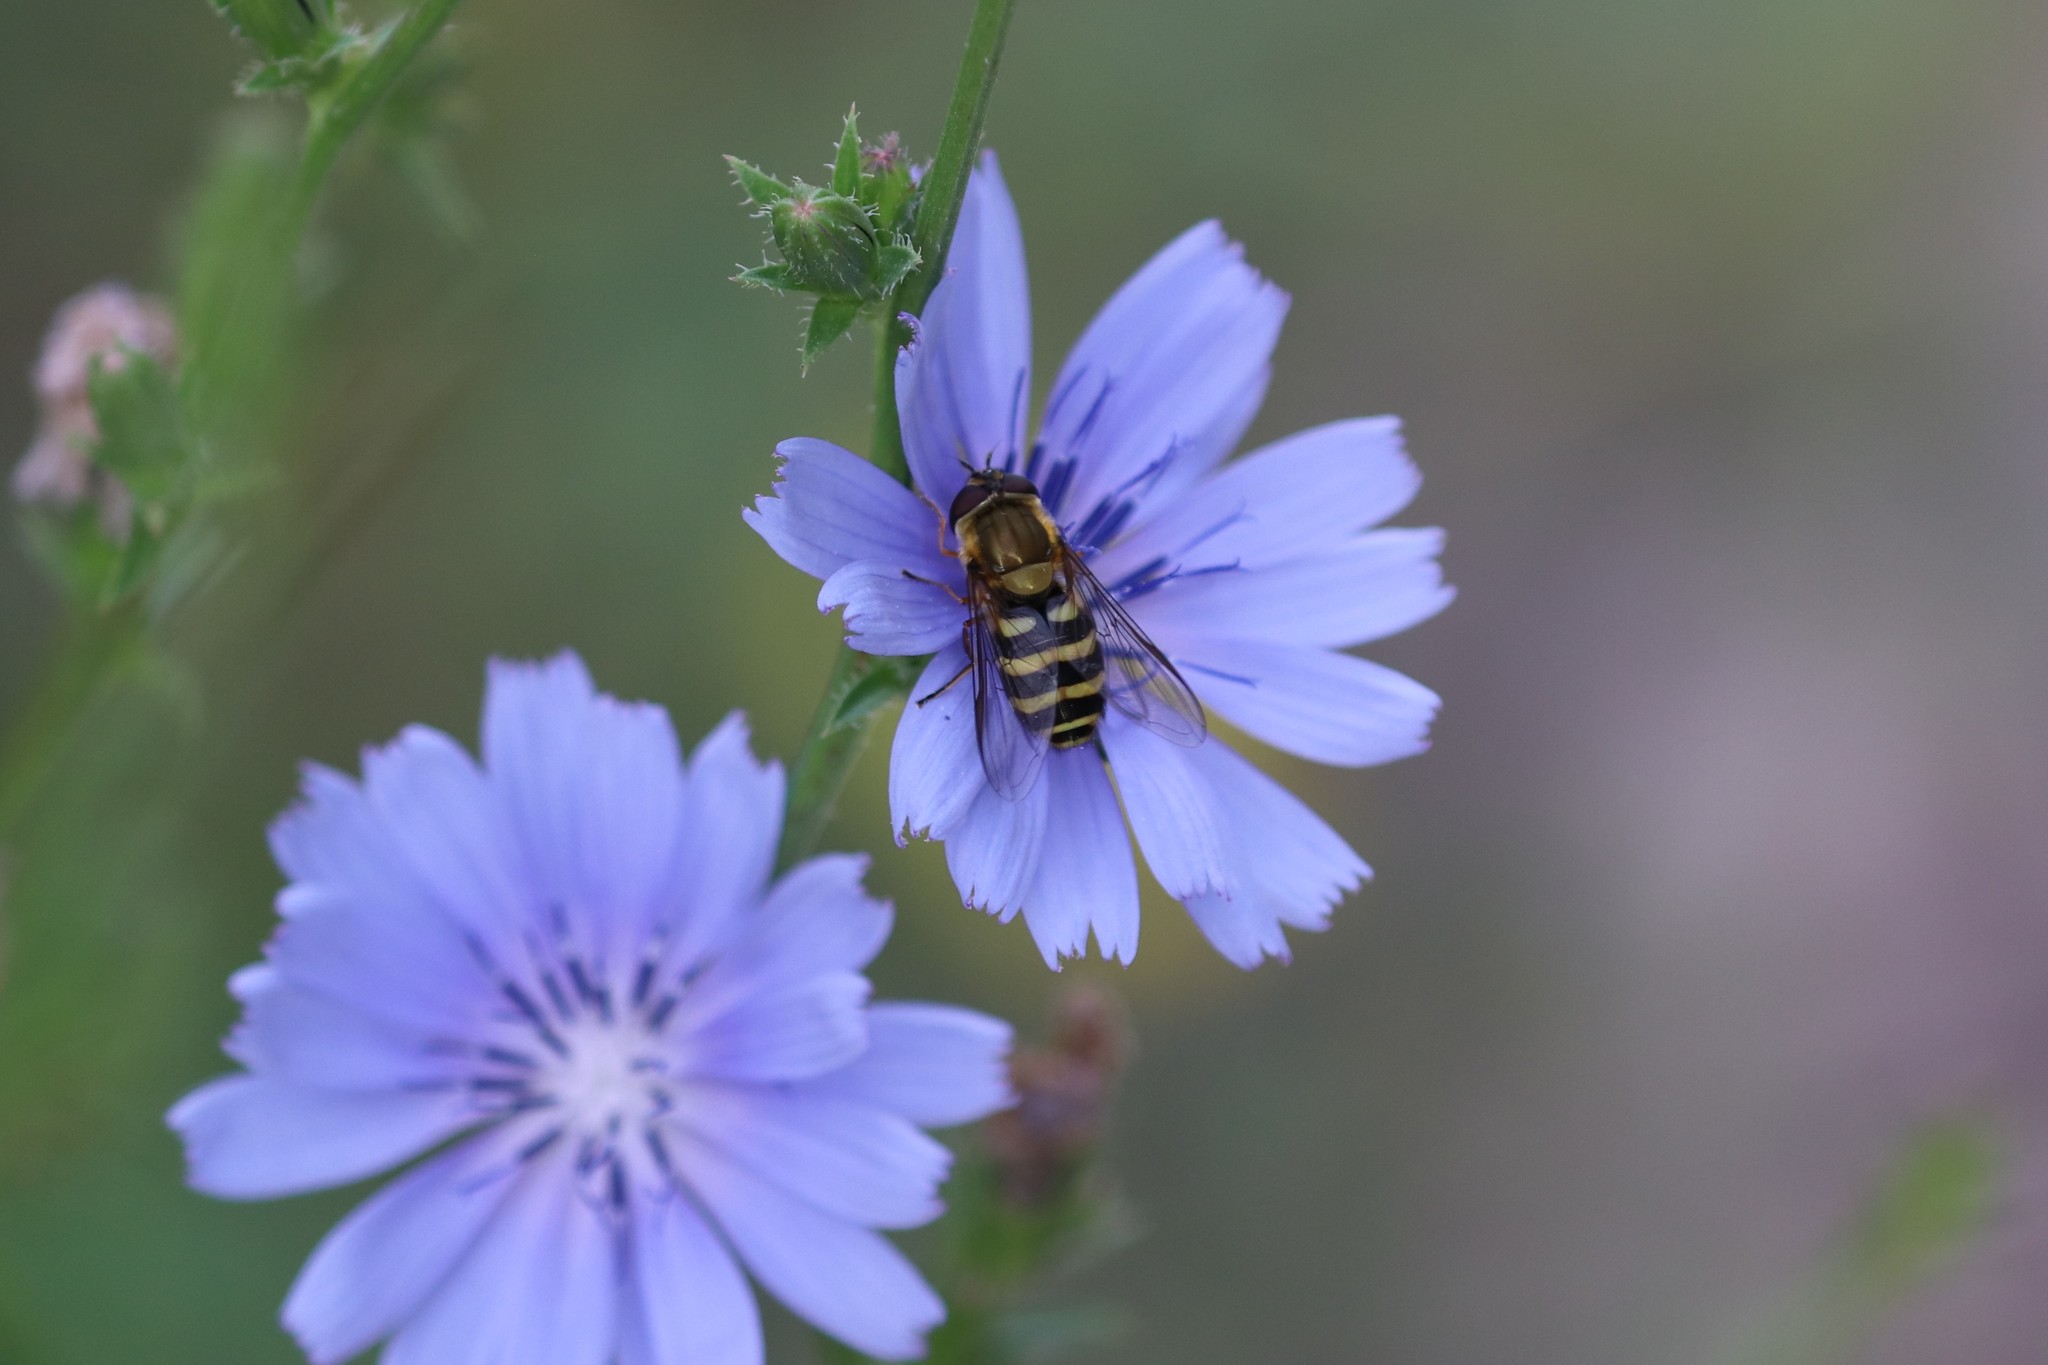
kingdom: Animalia
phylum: Arthropoda
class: Insecta
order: Diptera
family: Syrphidae
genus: Syrphus
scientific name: Syrphus
